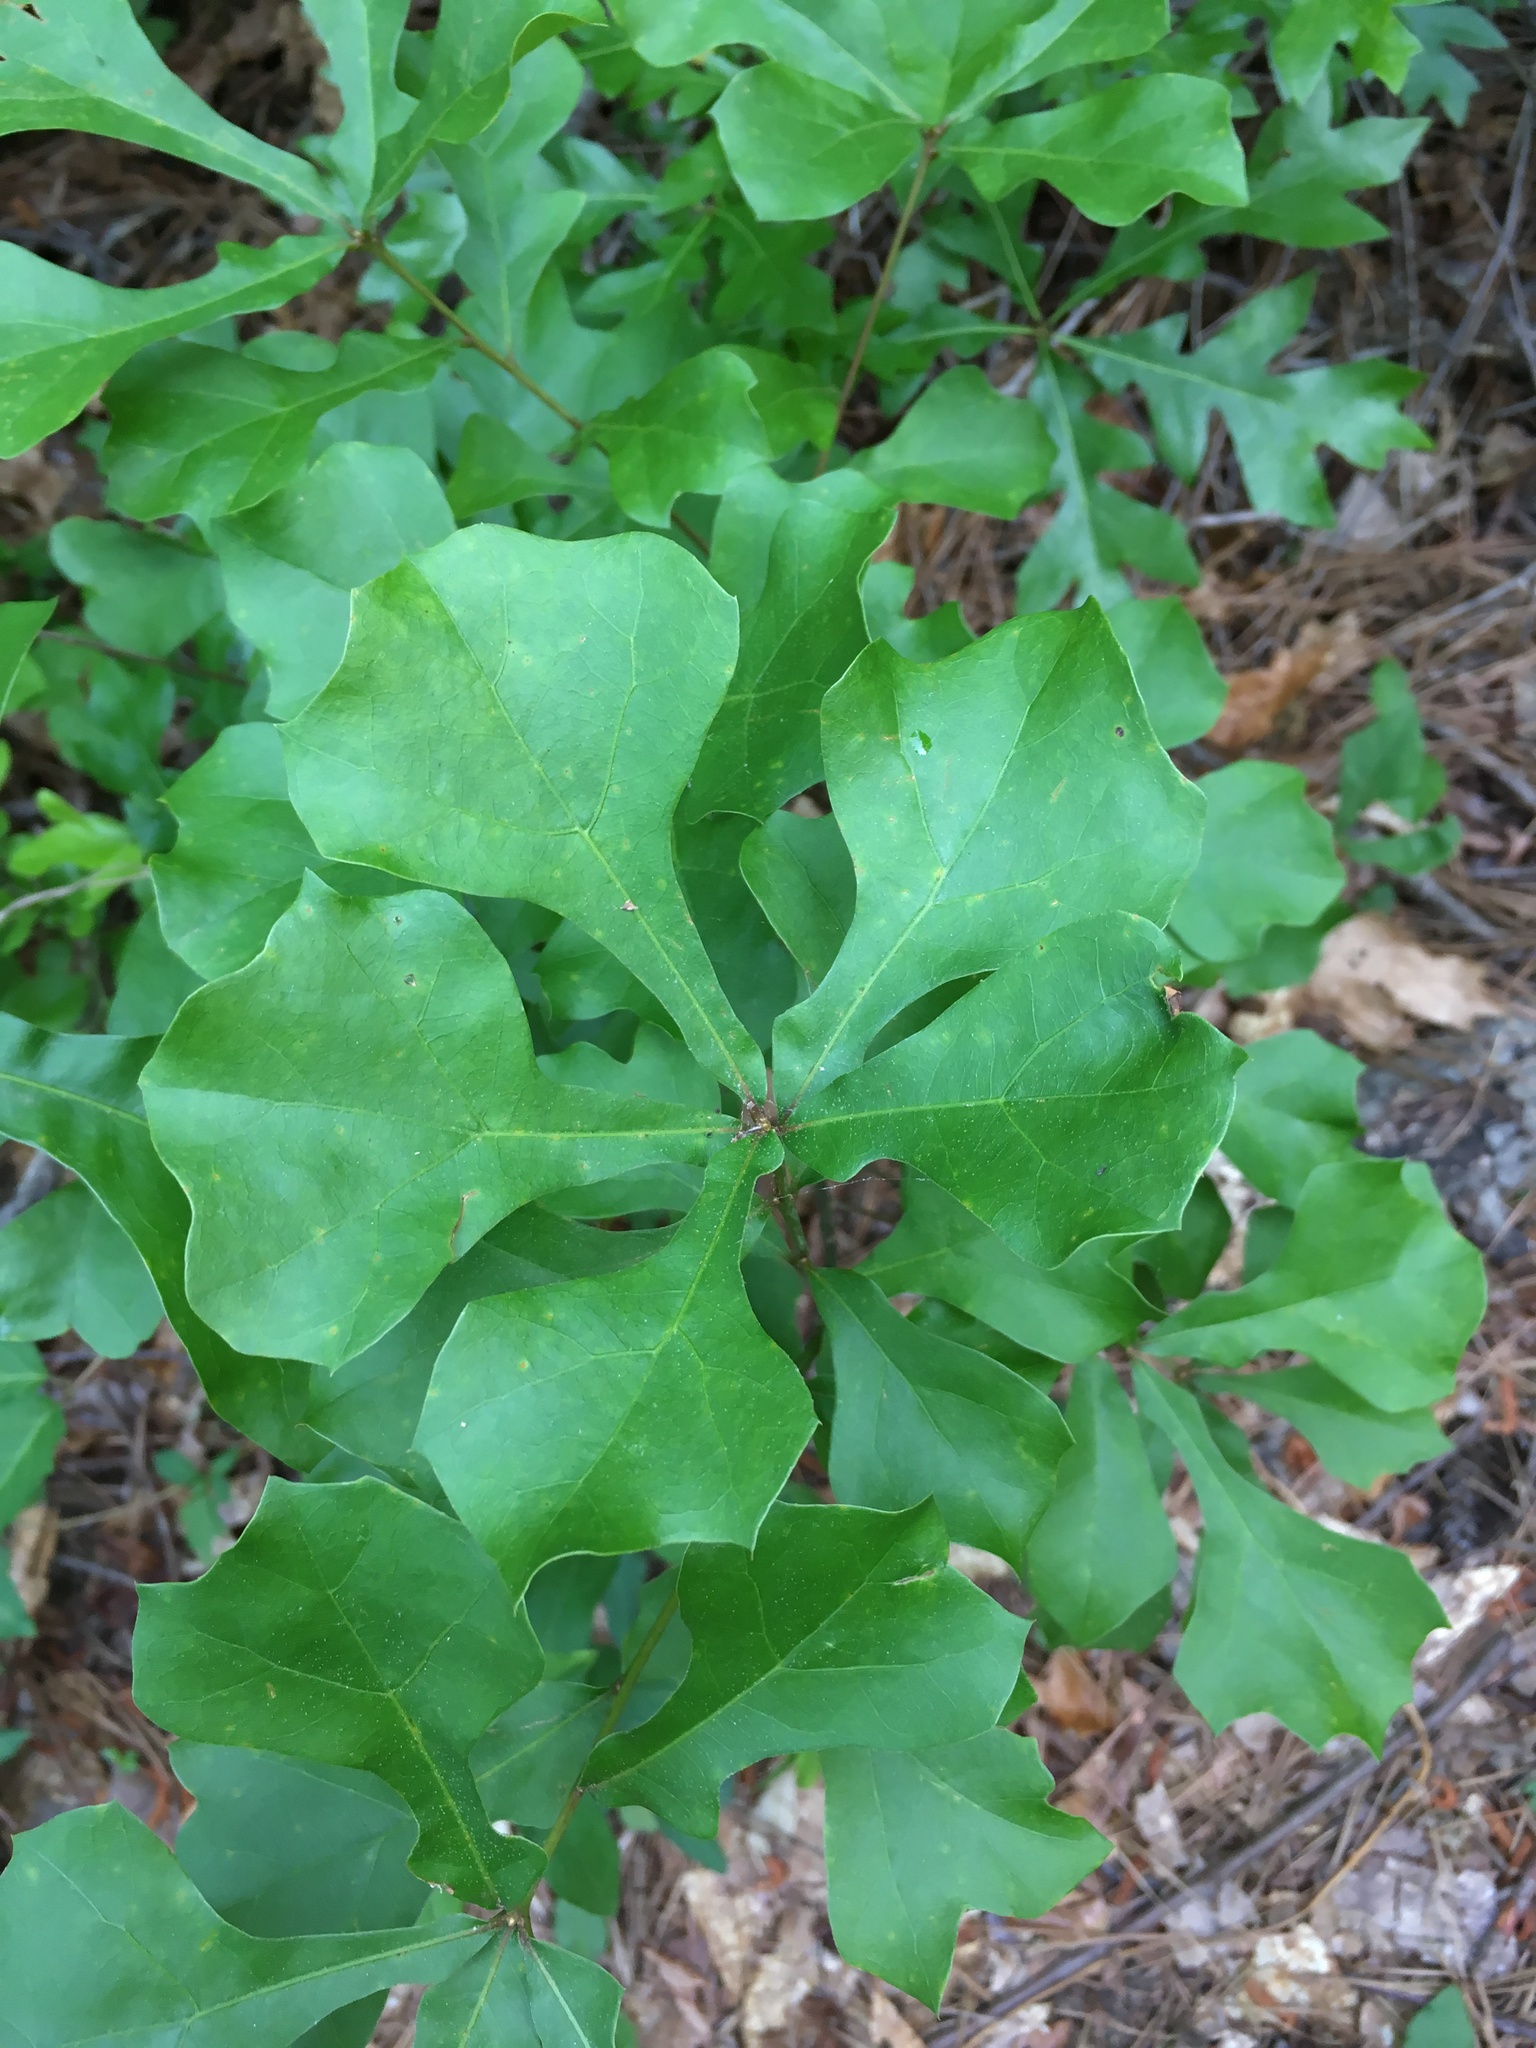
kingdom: Plantae
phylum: Tracheophyta
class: Magnoliopsida
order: Fagales
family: Fagaceae
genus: Quercus
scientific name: Quercus nigra
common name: Water oak
